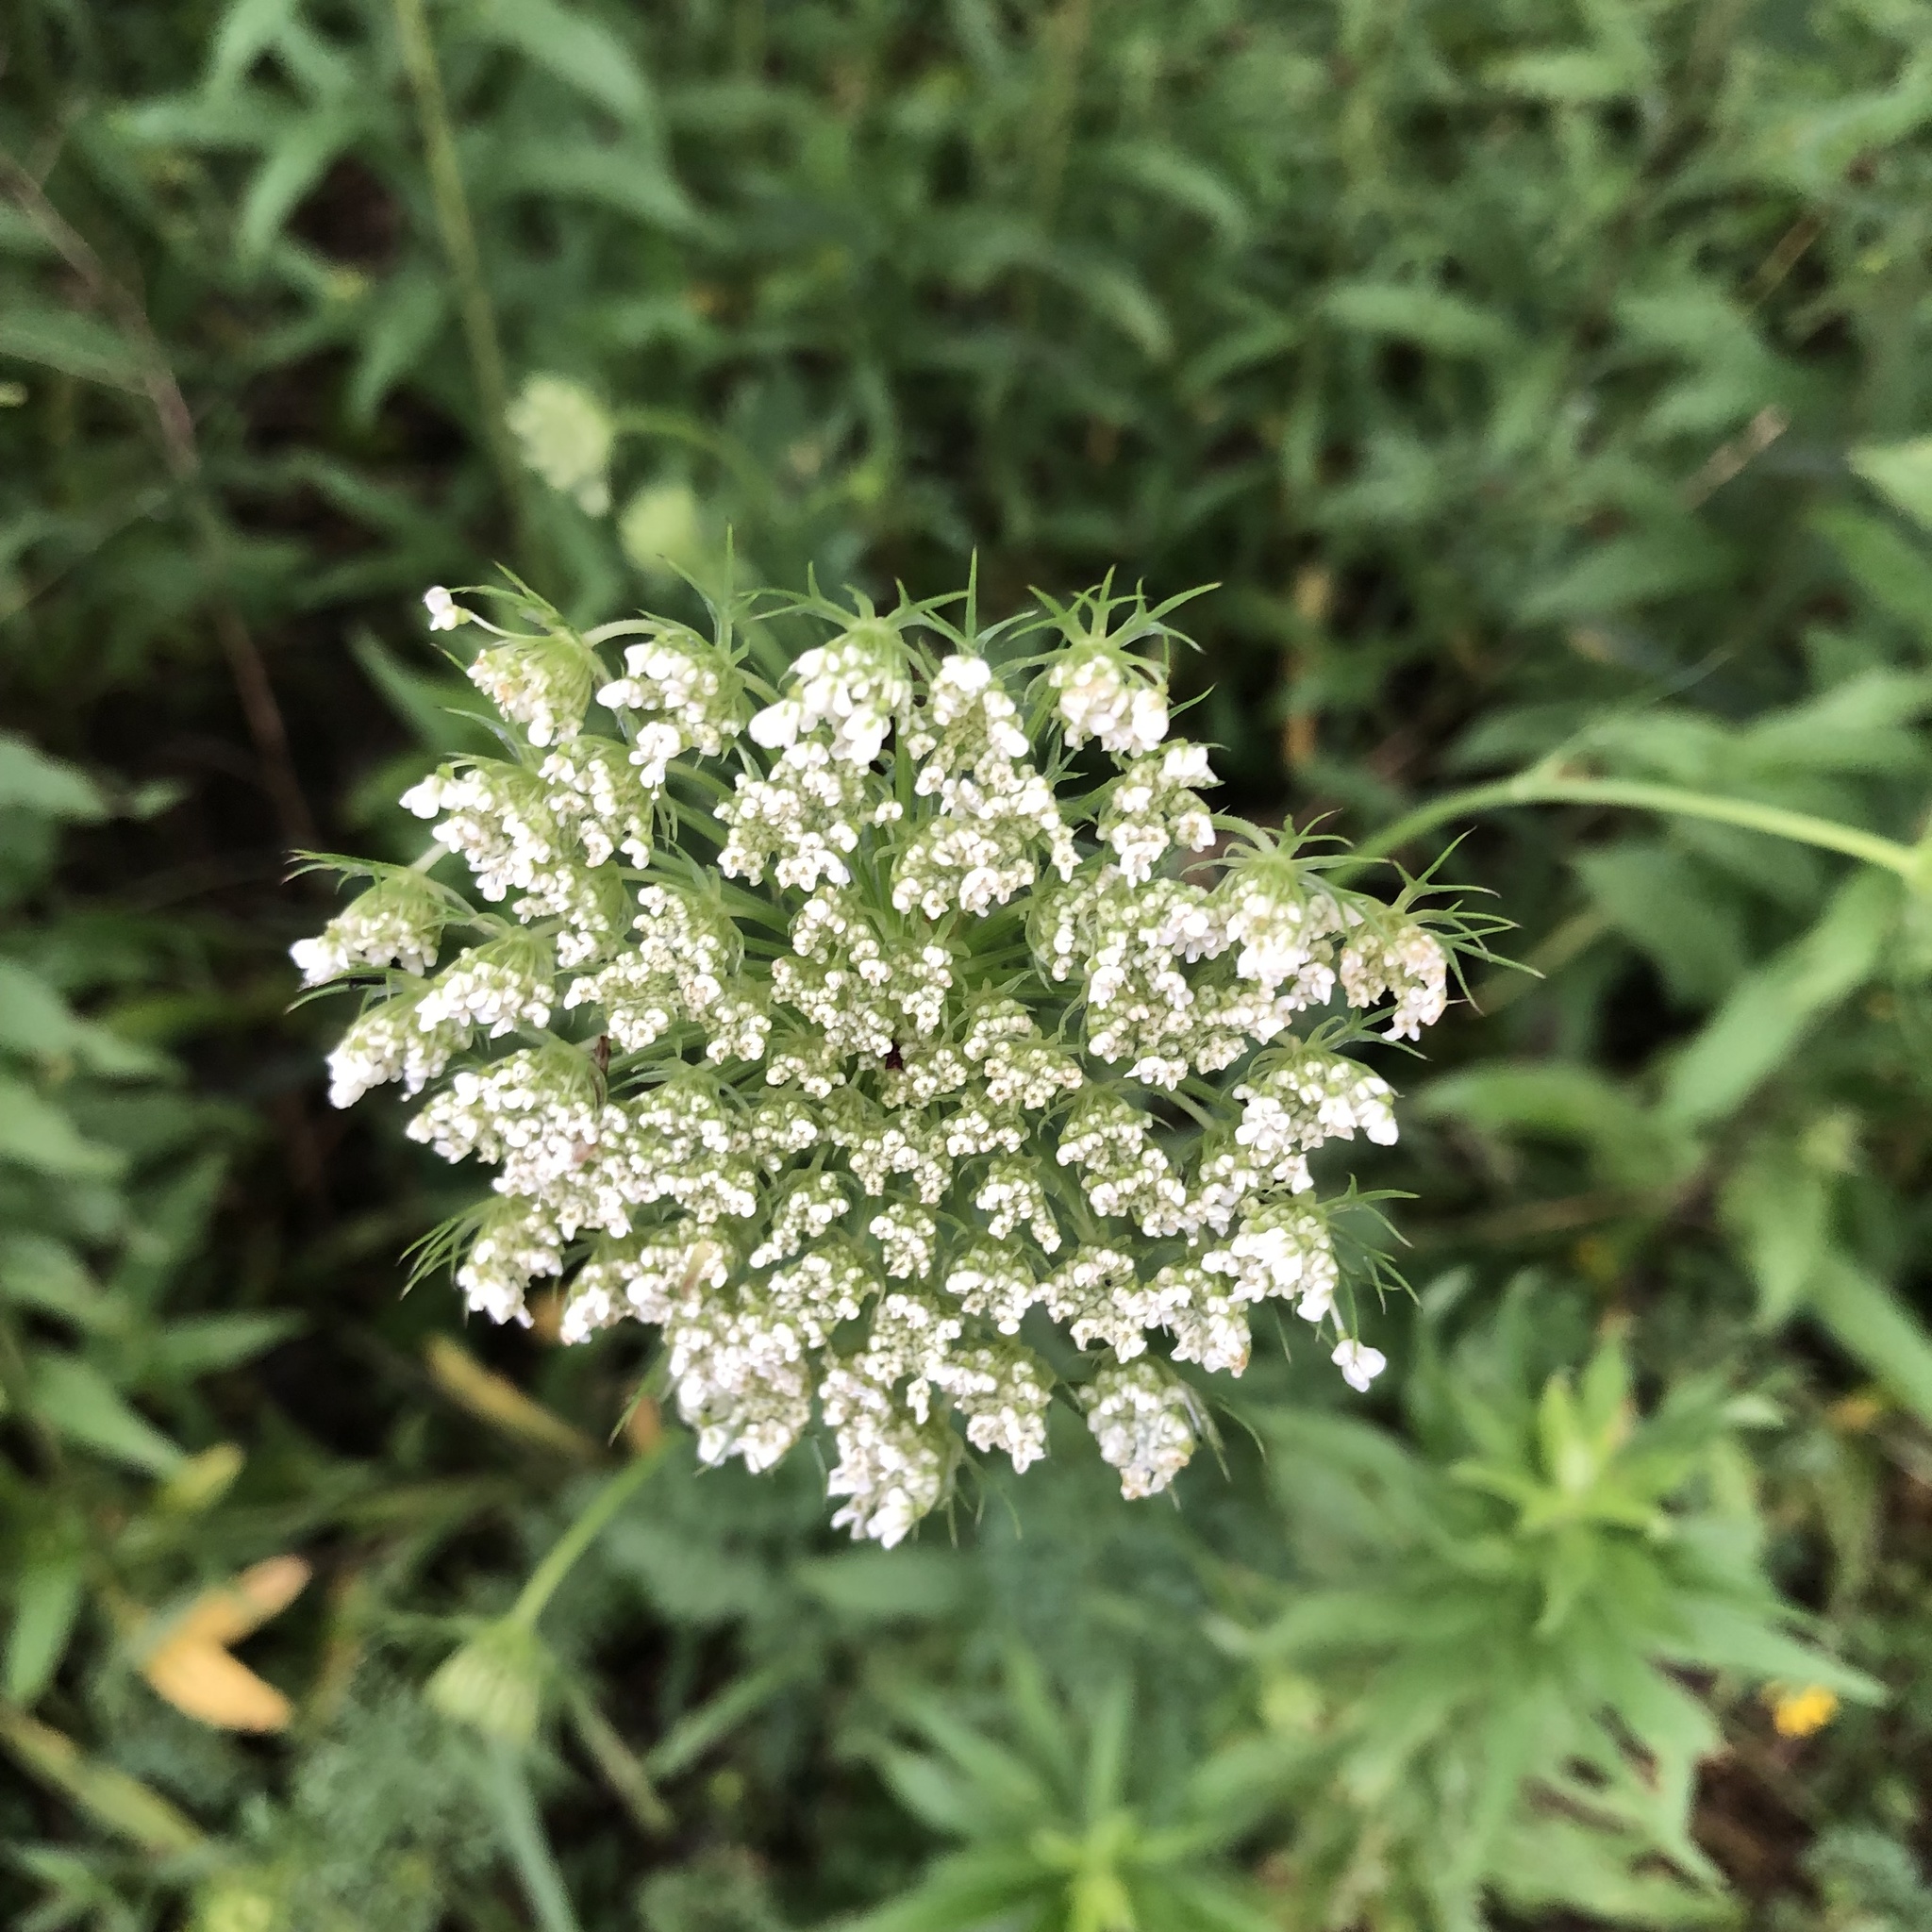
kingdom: Plantae
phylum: Tracheophyta
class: Magnoliopsida
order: Apiales
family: Apiaceae
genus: Daucus
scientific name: Daucus carota
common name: Wild carrot
